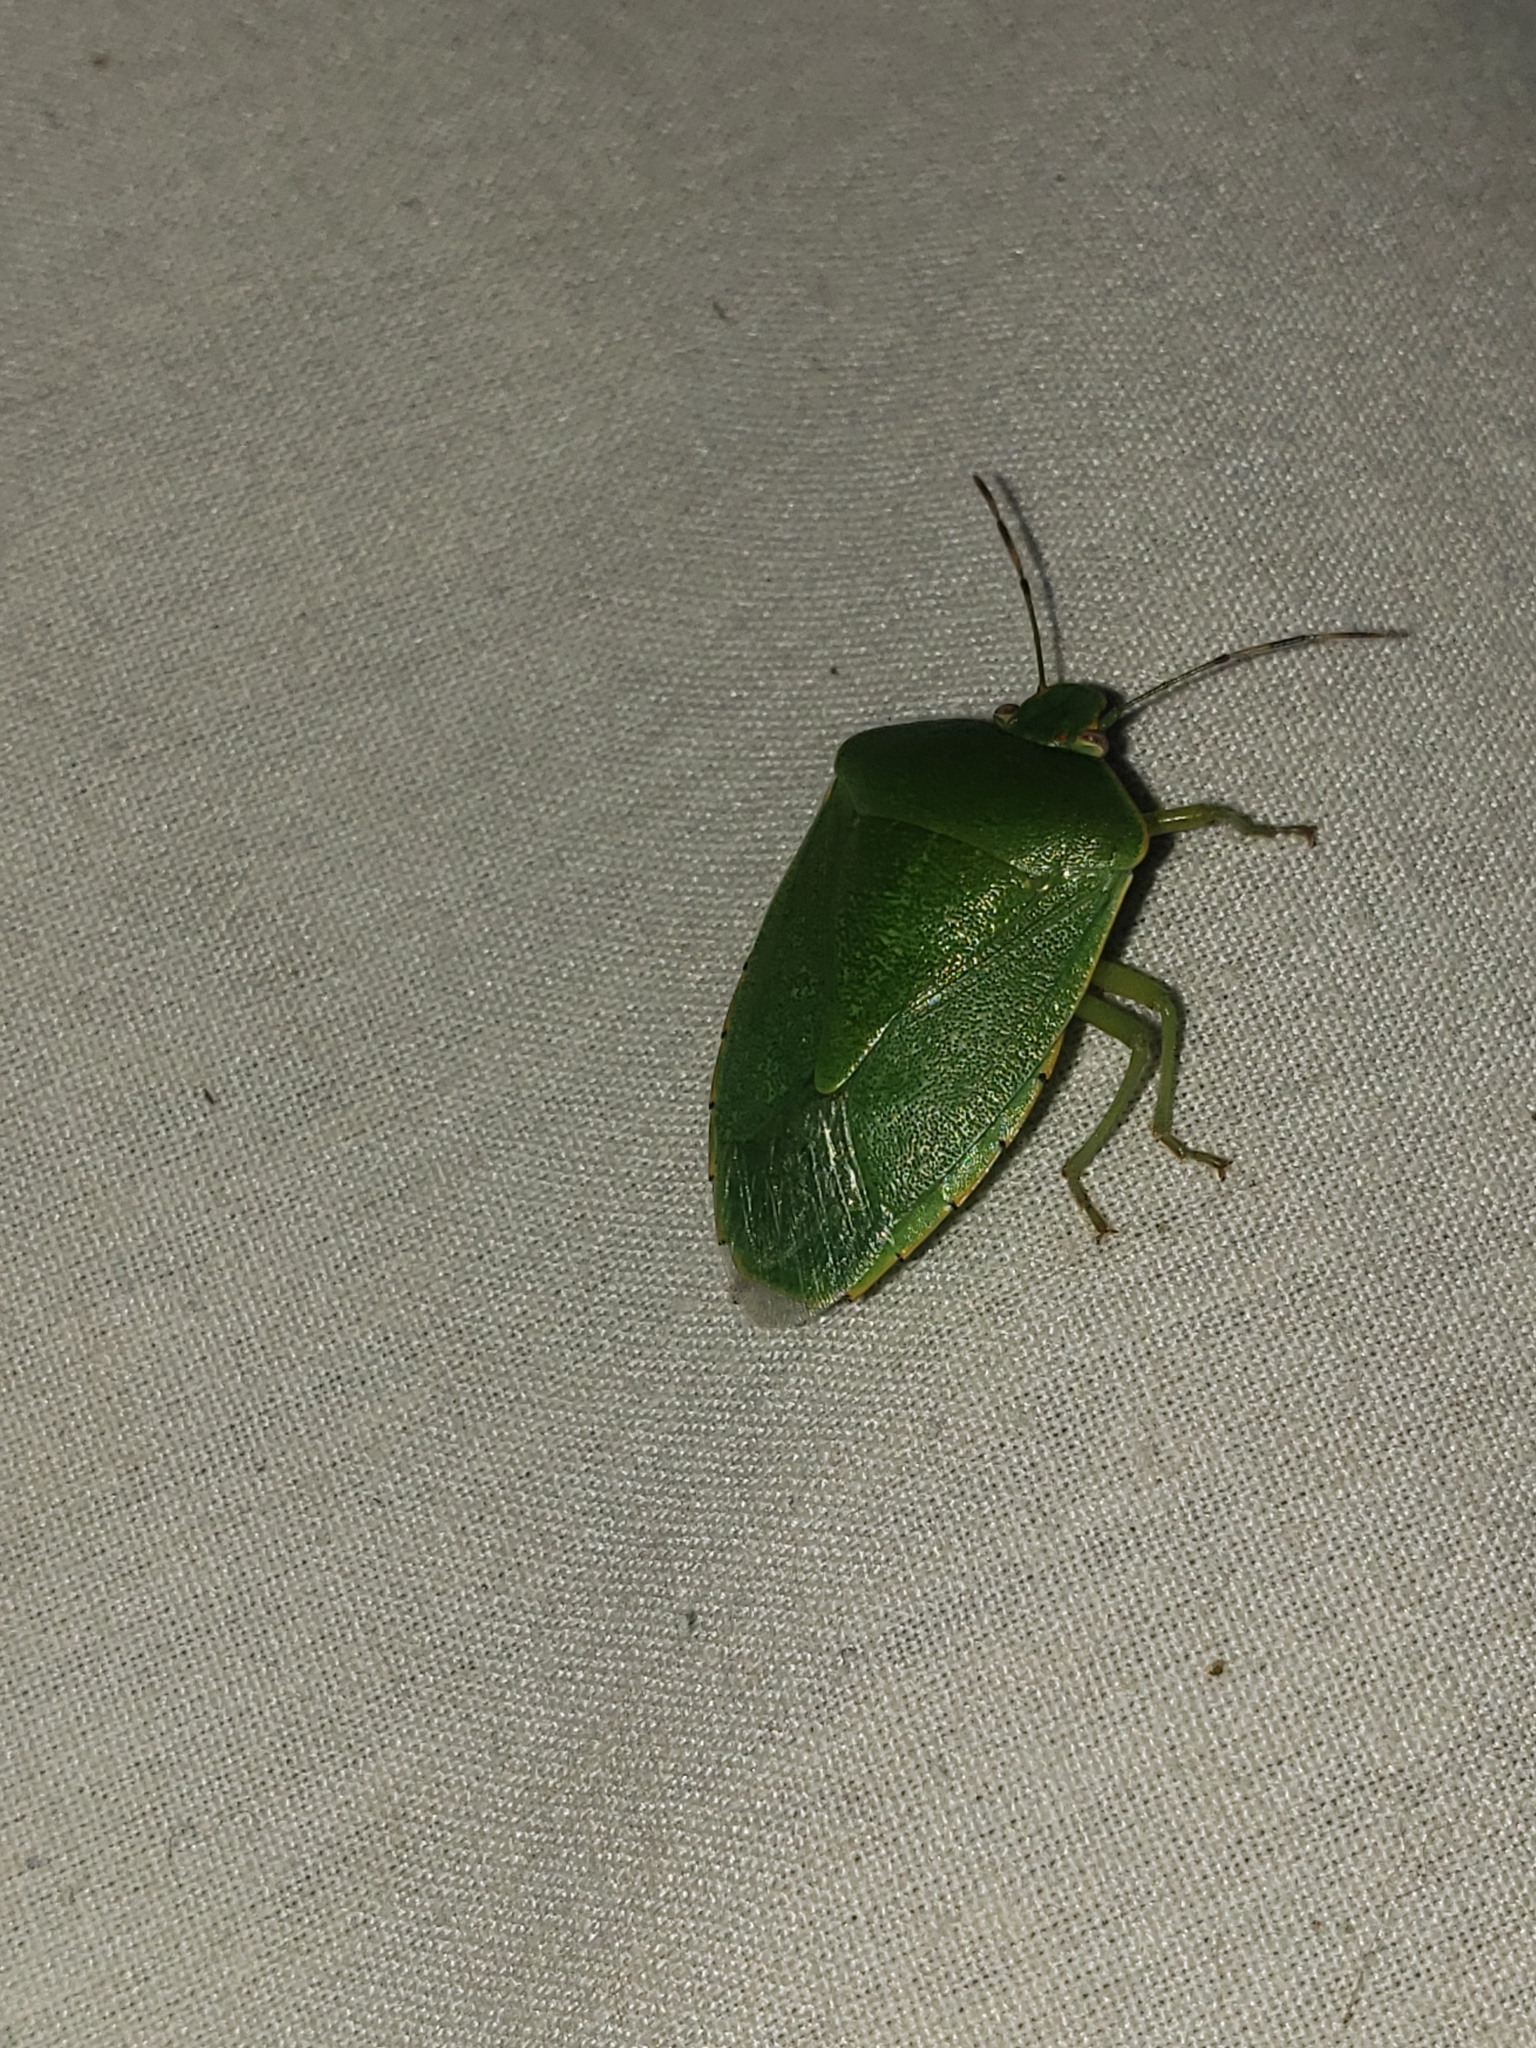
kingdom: Animalia
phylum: Arthropoda
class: Insecta
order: Hemiptera
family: Pentatomidae
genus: Chinavia
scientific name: Chinavia hilaris
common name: Green stink bug
